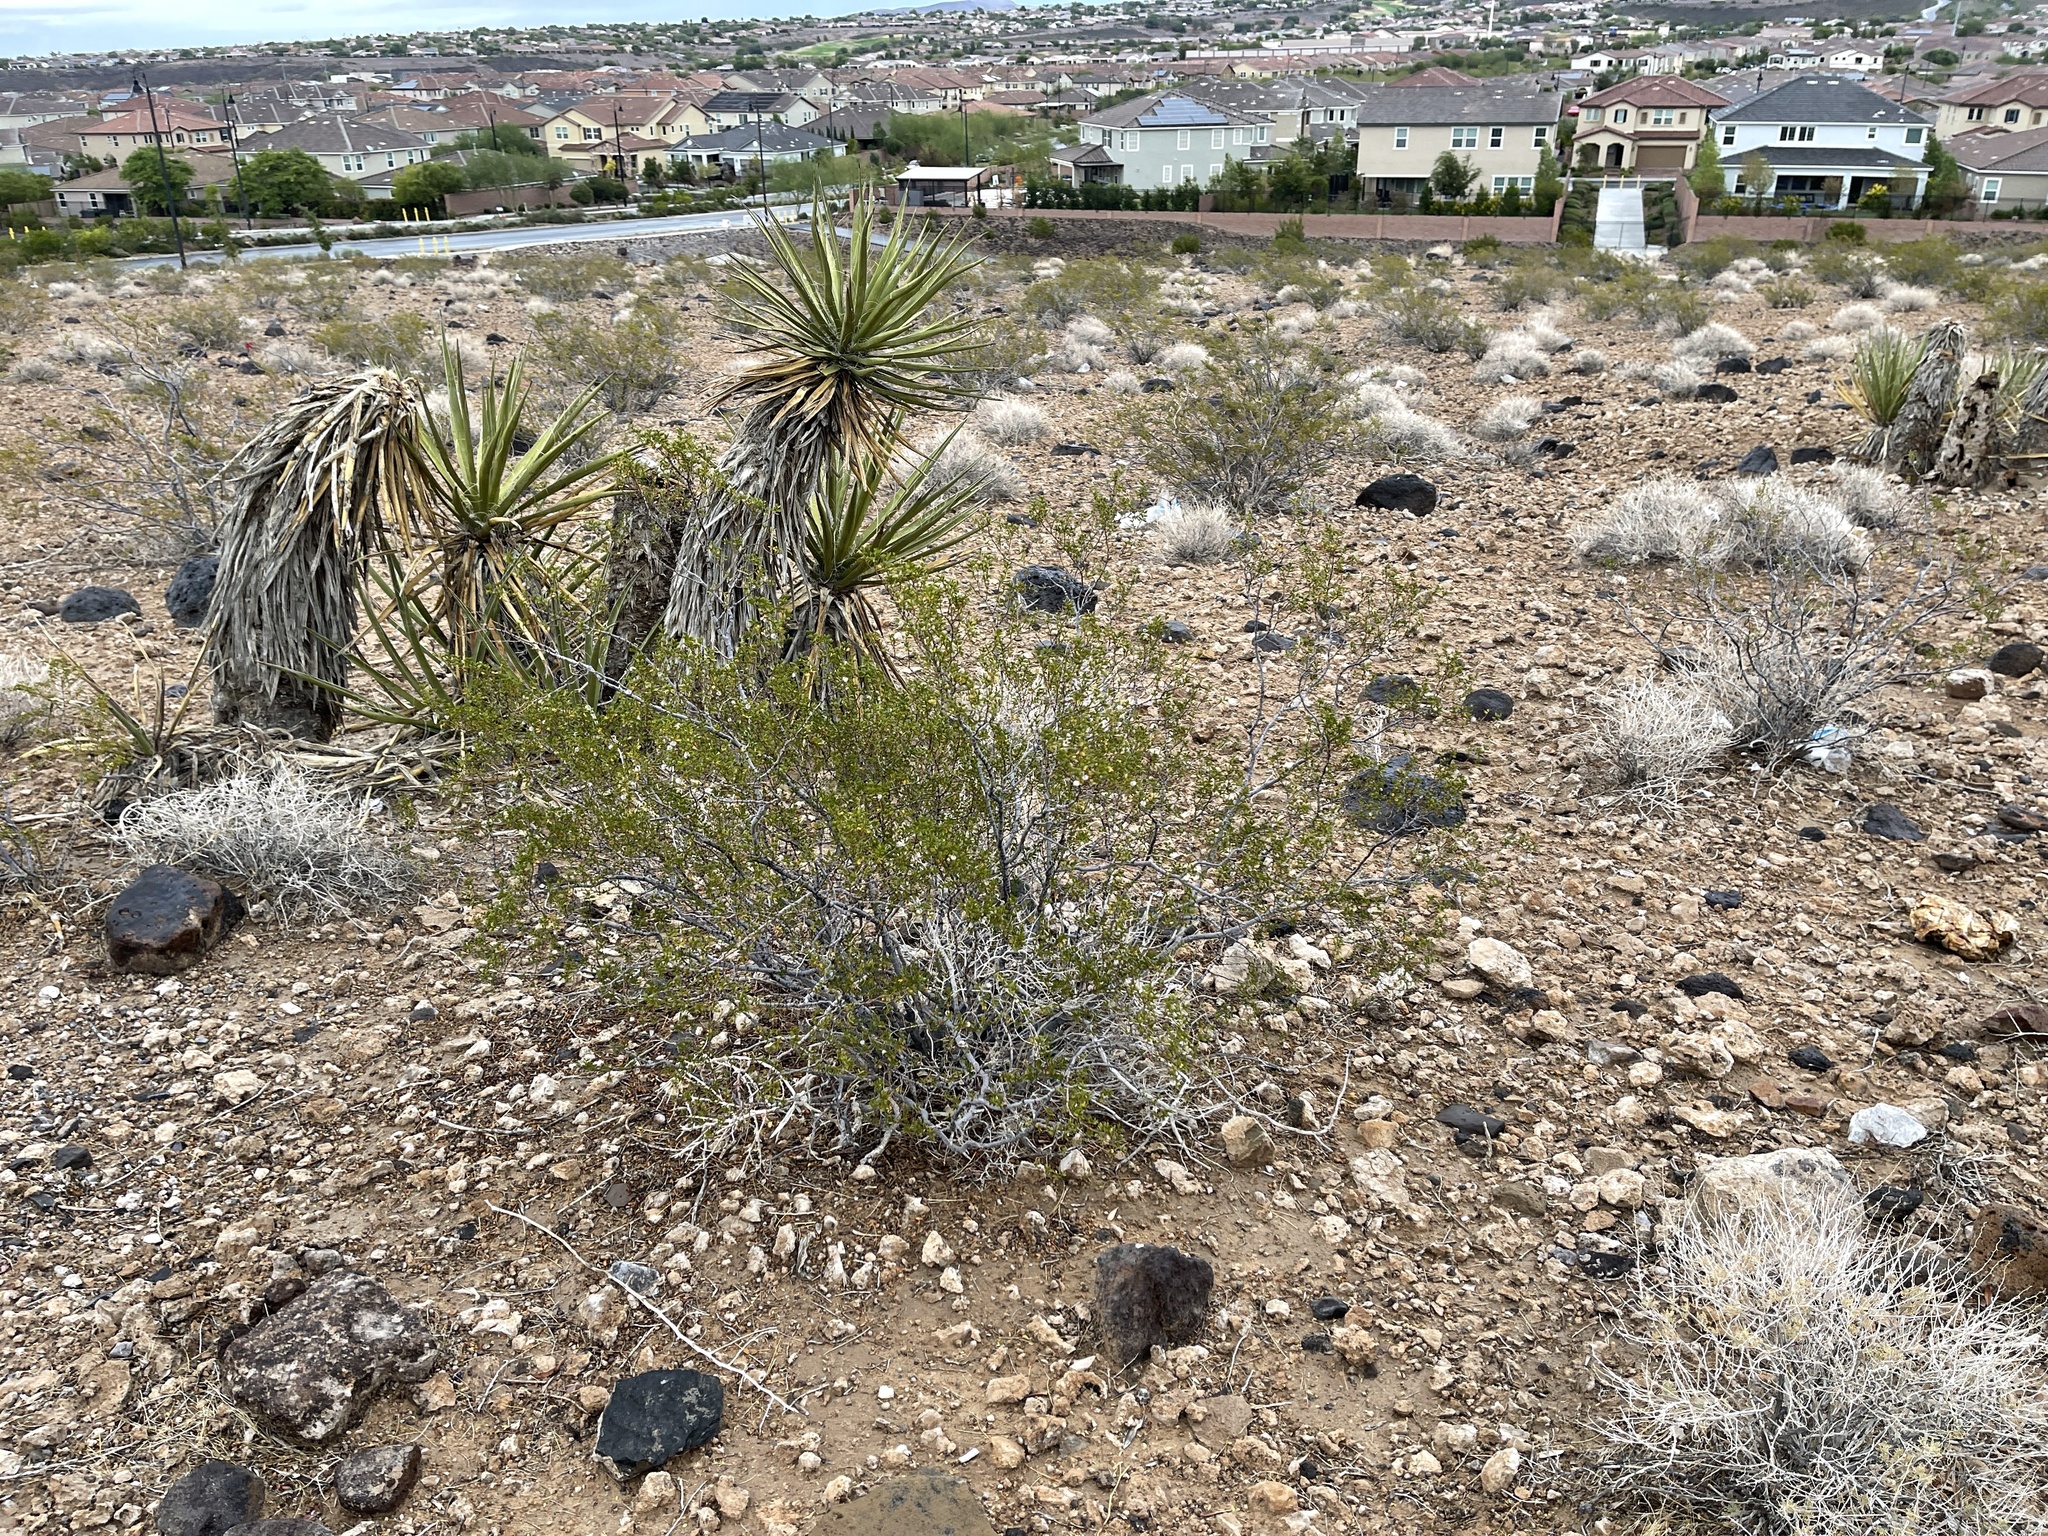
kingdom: Plantae
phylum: Tracheophyta
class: Magnoliopsida
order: Zygophyllales
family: Zygophyllaceae
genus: Larrea
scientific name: Larrea tridentata
